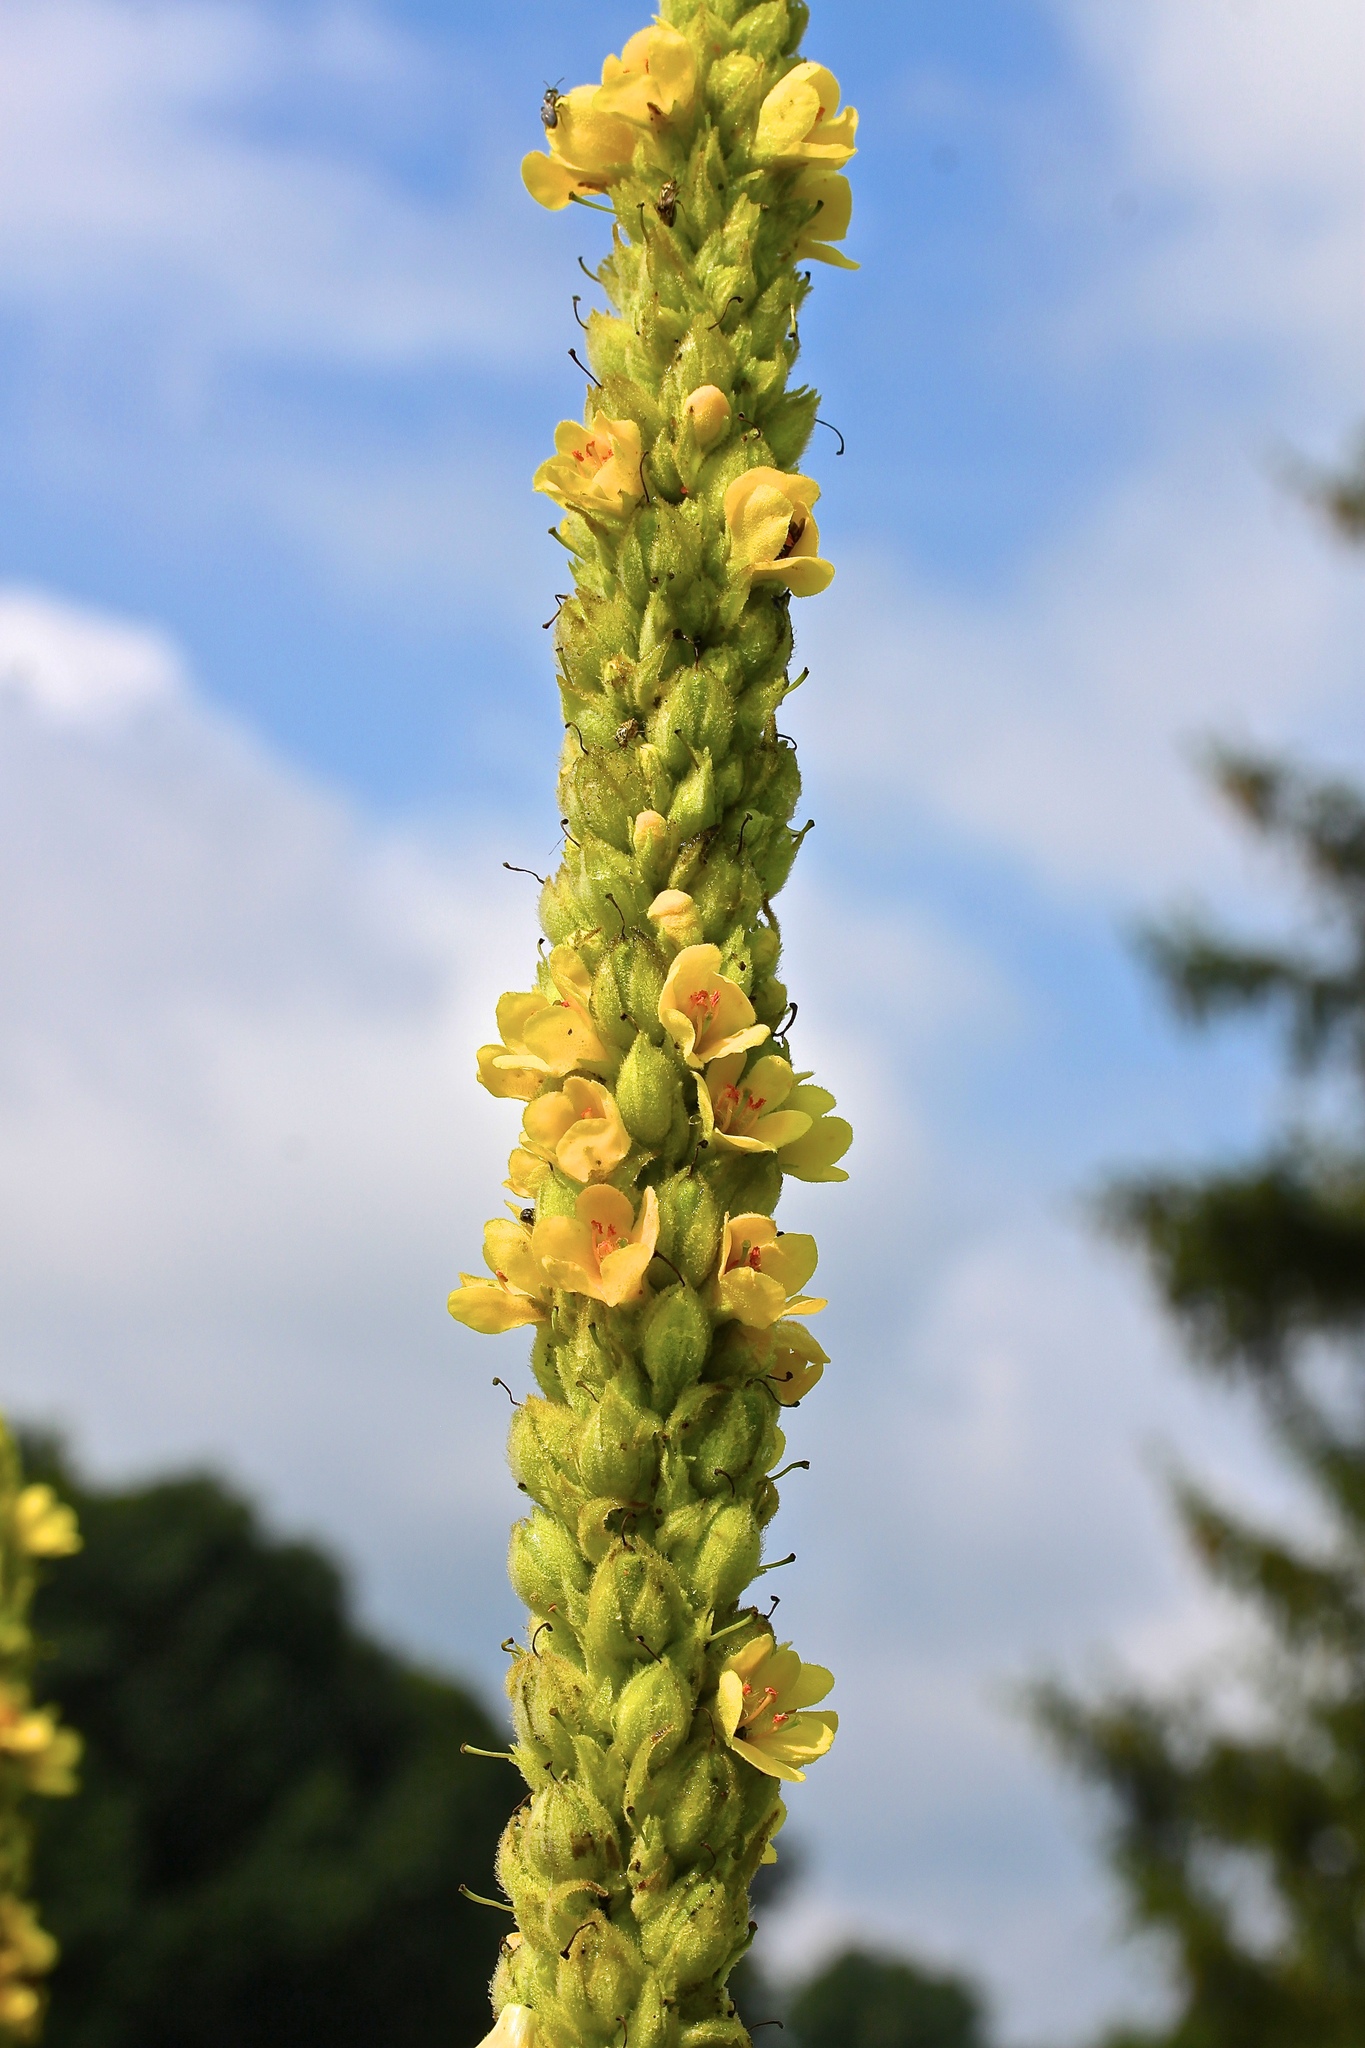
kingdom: Plantae
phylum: Tracheophyta
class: Magnoliopsida
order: Lamiales
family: Scrophulariaceae
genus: Verbascum
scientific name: Verbascum thapsus
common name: Common mullein
